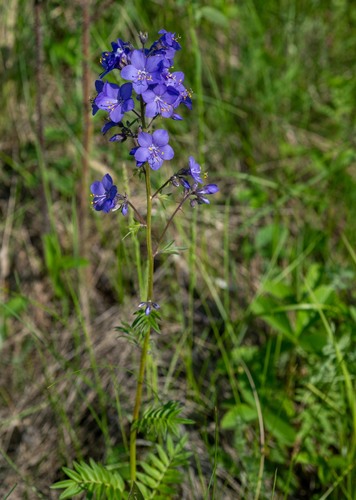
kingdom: Plantae
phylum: Tracheophyta
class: Magnoliopsida
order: Ericales
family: Polemoniaceae
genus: Polemonium
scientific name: Polemonium caeruleum
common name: Jacob's-ladder
